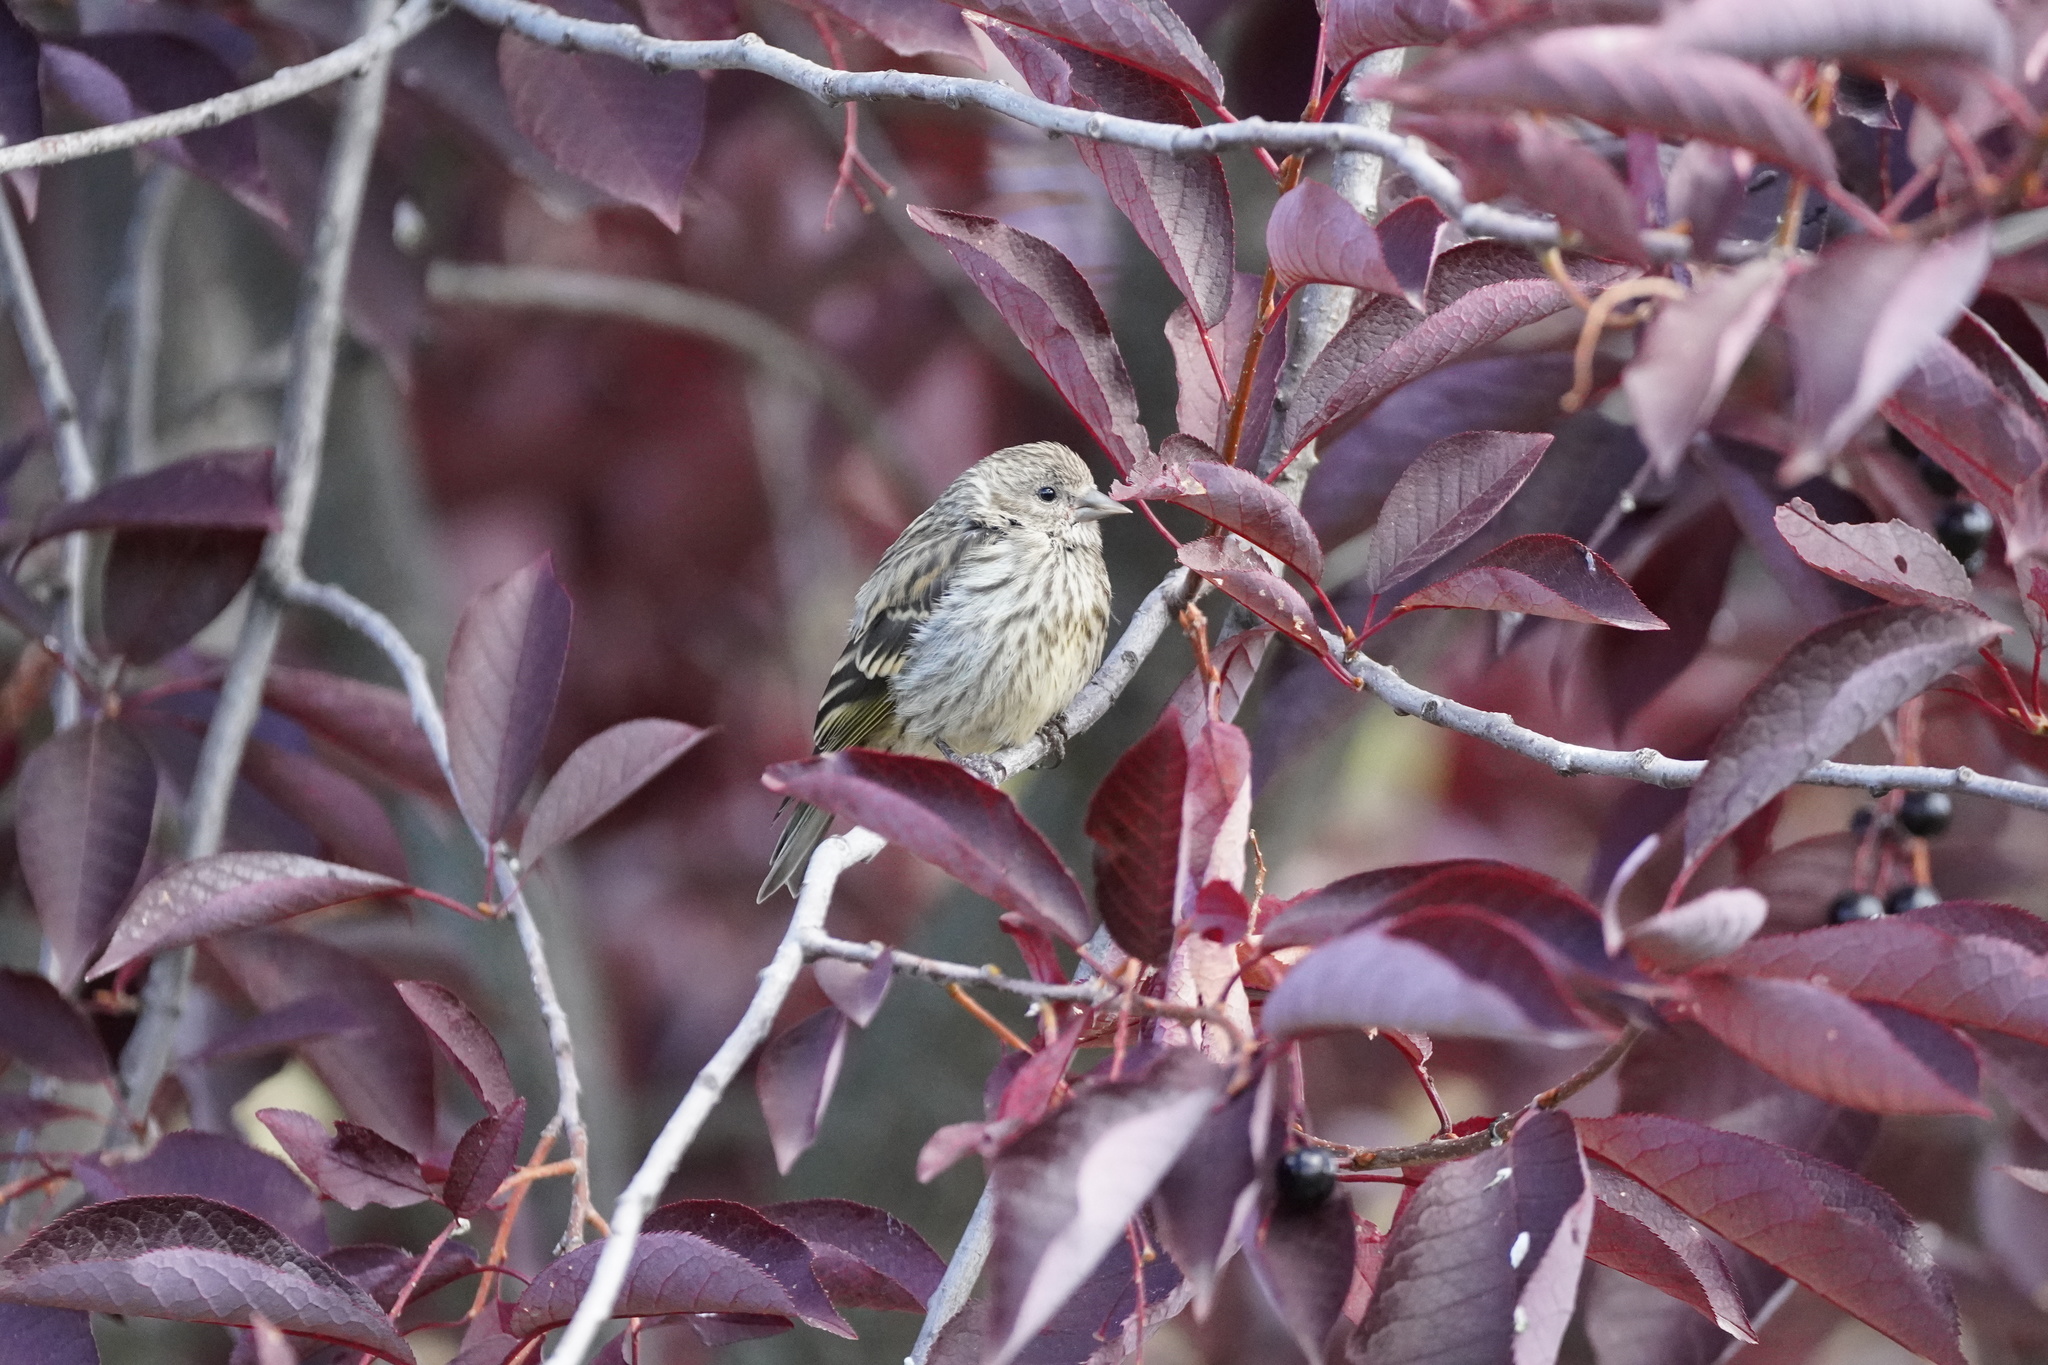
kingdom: Animalia
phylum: Chordata
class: Aves
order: Passeriformes
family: Fringillidae
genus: Spinus
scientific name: Spinus pinus
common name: Pine siskin
